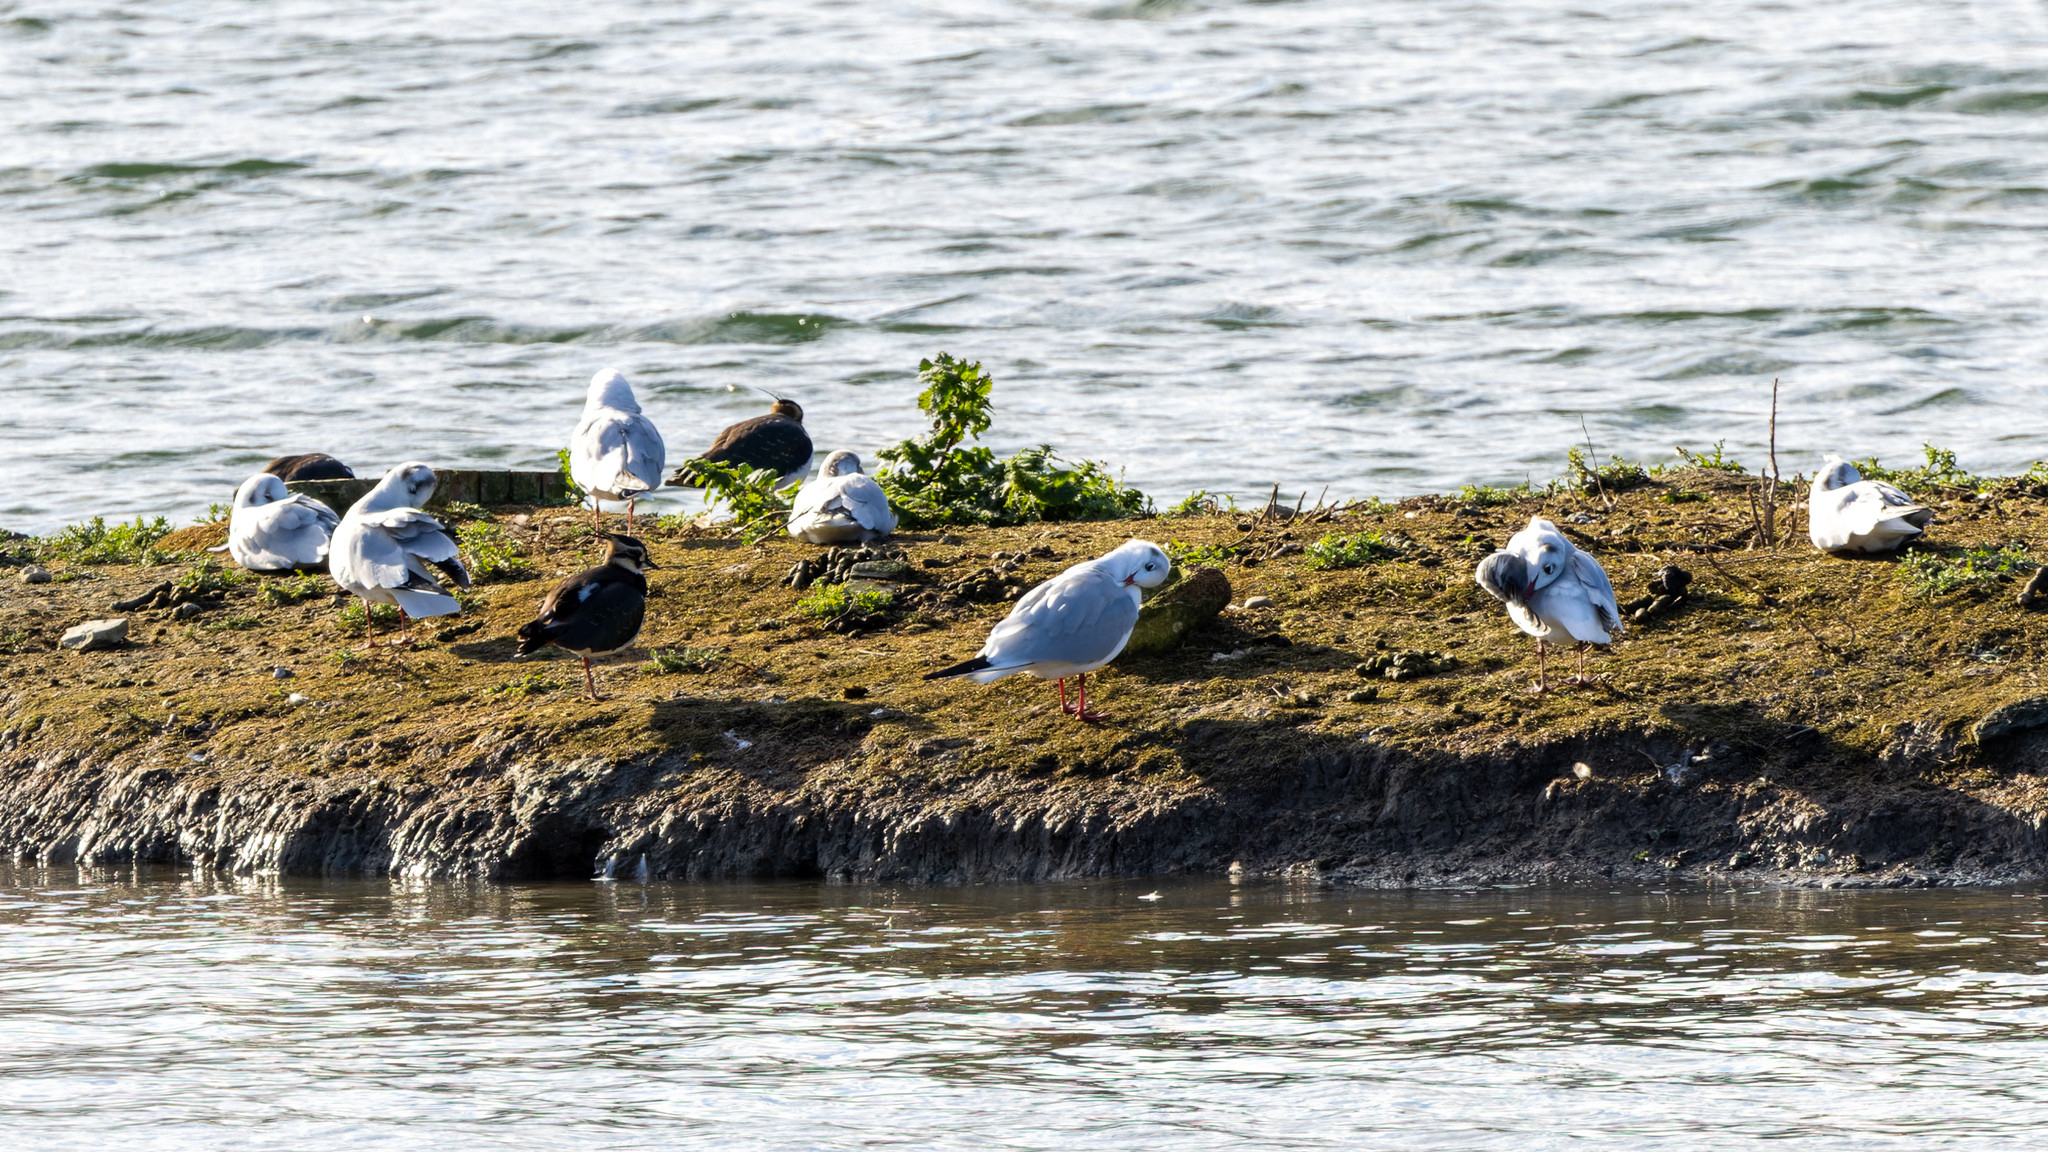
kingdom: Animalia
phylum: Chordata
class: Aves
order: Charadriiformes
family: Laridae
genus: Chroicocephalus
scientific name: Chroicocephalus ridibundus
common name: Black-headed gull
